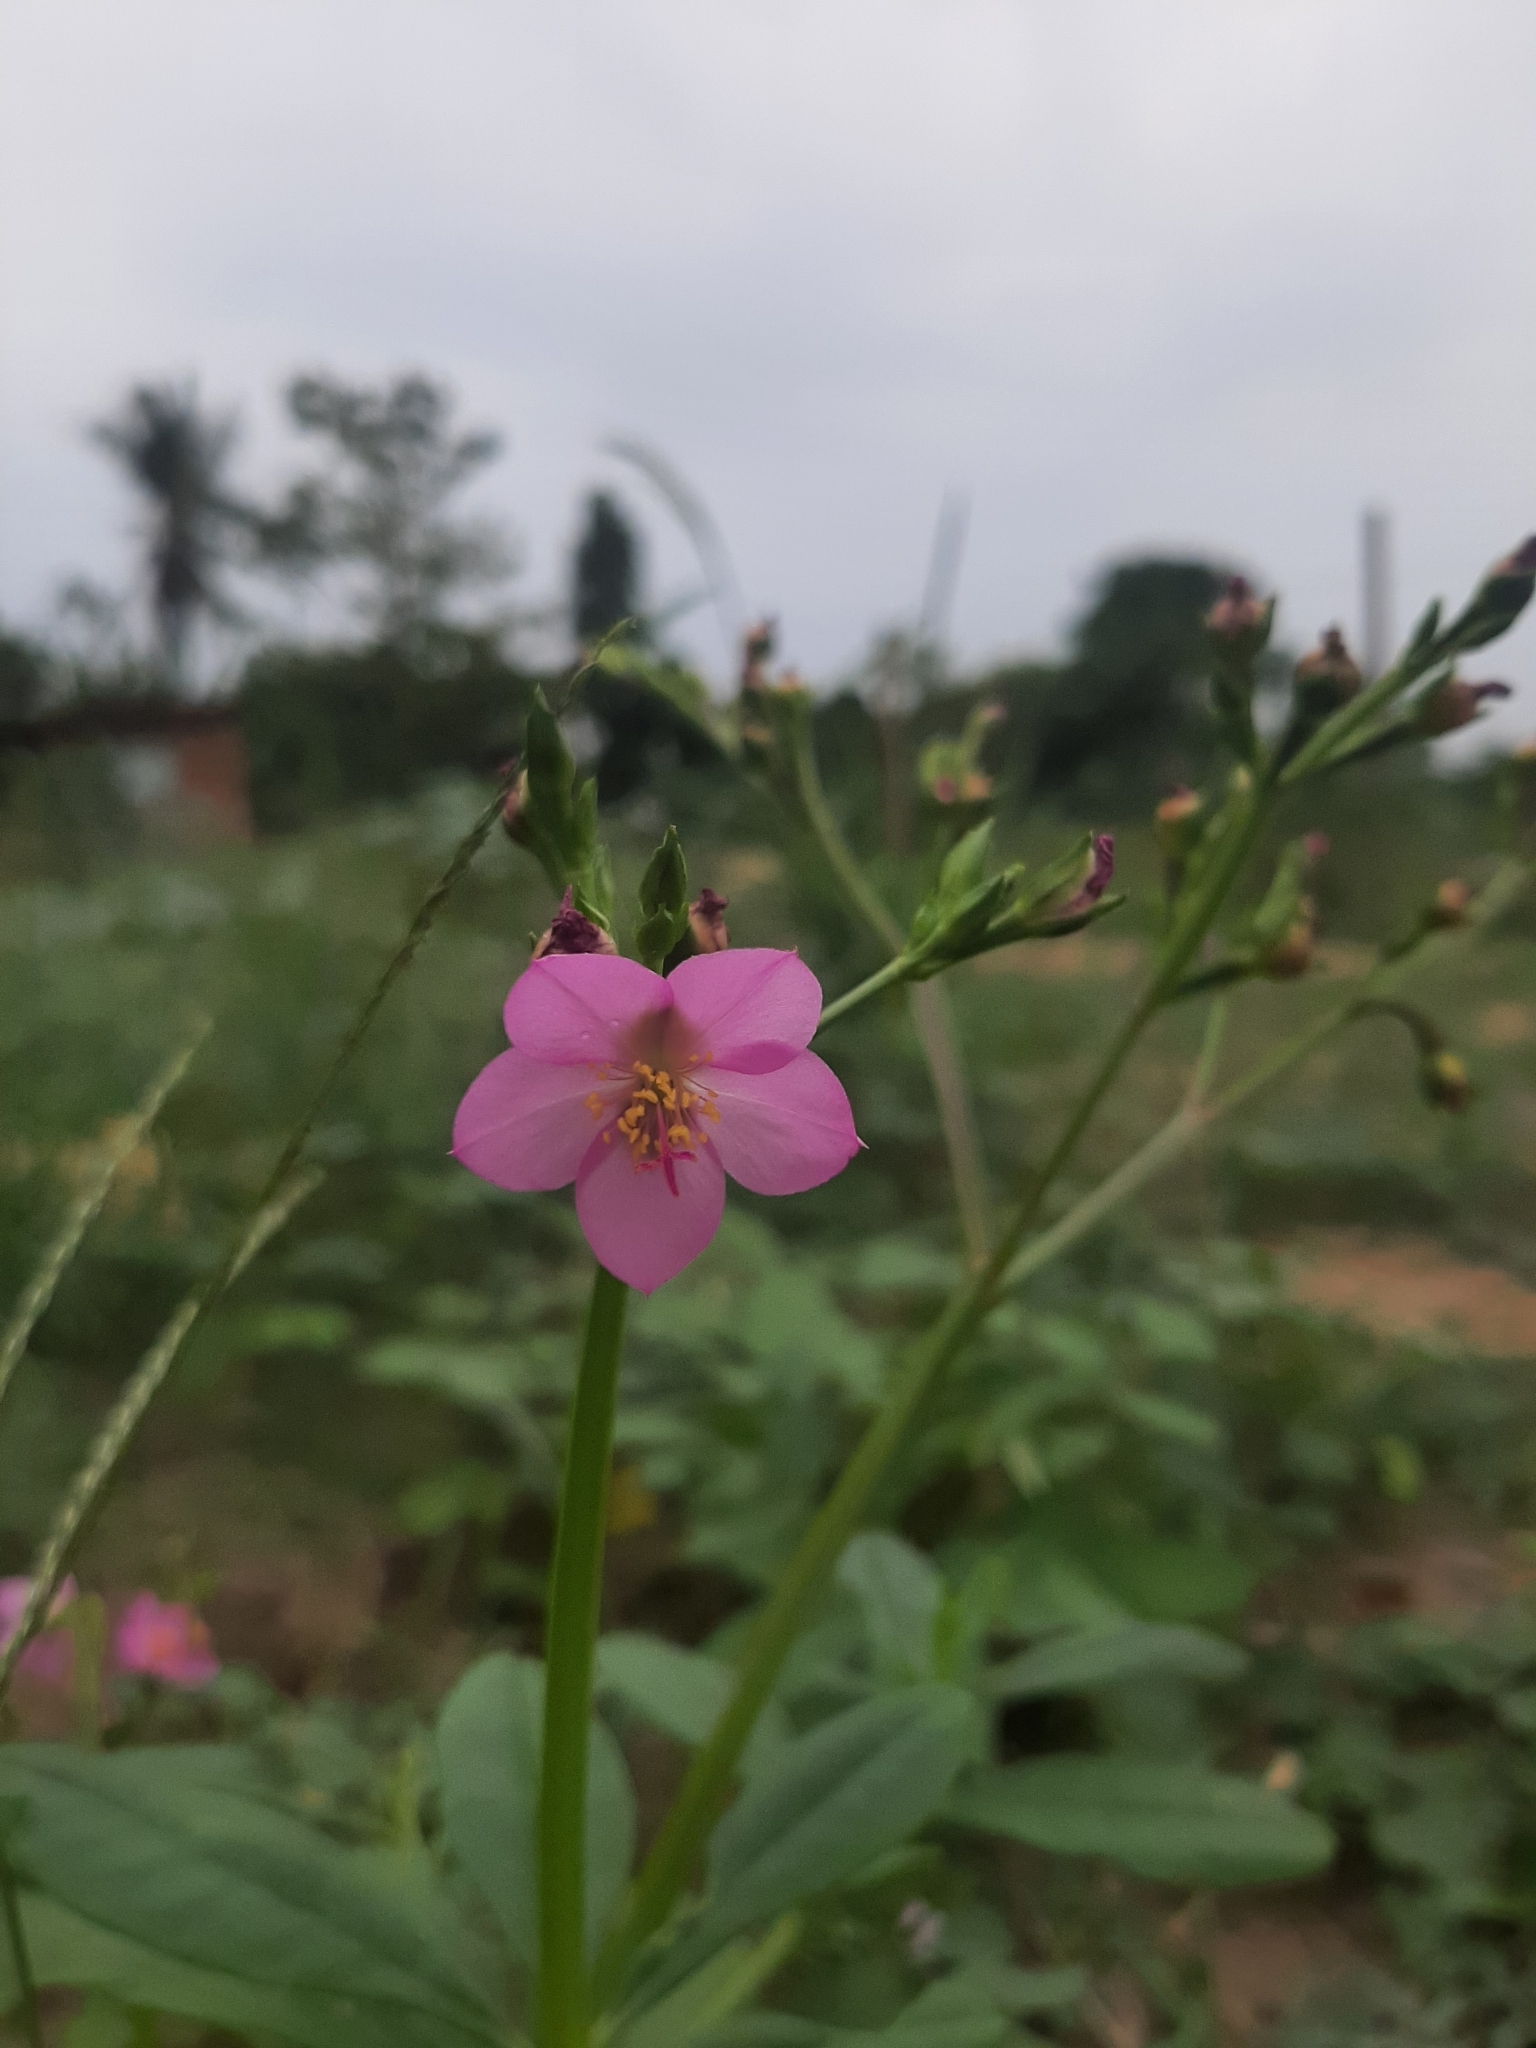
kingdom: Plantae
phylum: Tracheophyta
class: Magnoliopsida
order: Caryophyllales
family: Talinaceae
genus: Talinum
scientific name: Talinum fruticosum
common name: Verdolaga-francesa
